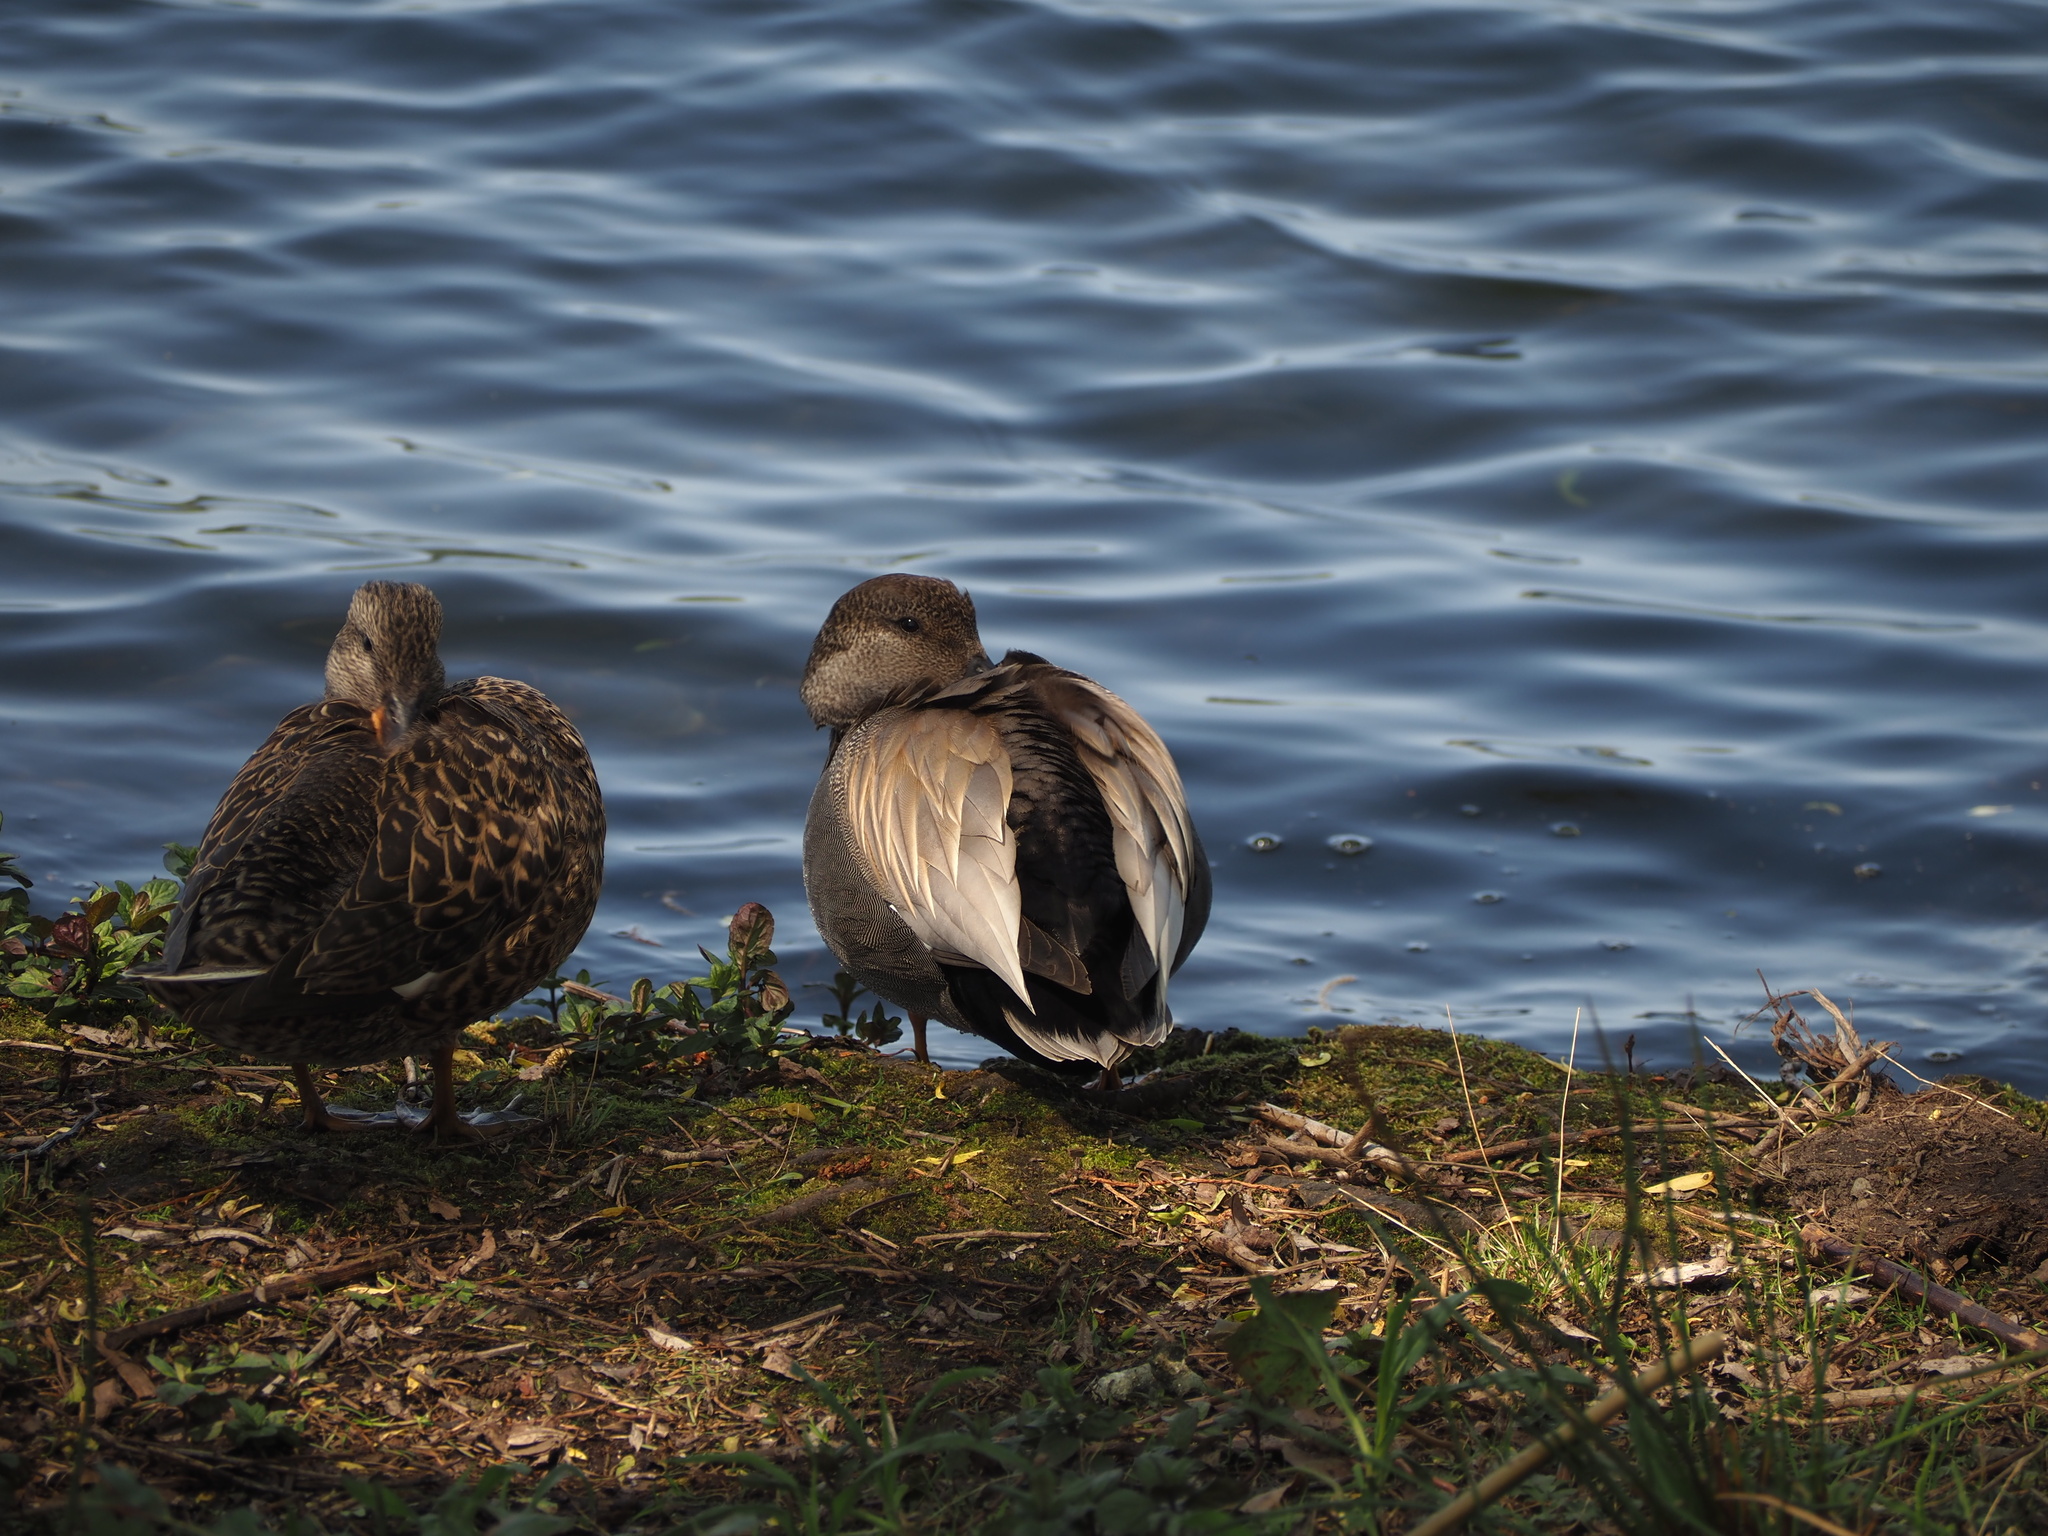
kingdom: Animalia
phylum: Chordata
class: Aves
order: Anseriformes
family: Anatidae
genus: Mareca
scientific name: Mareca strepera
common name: Gadwall
